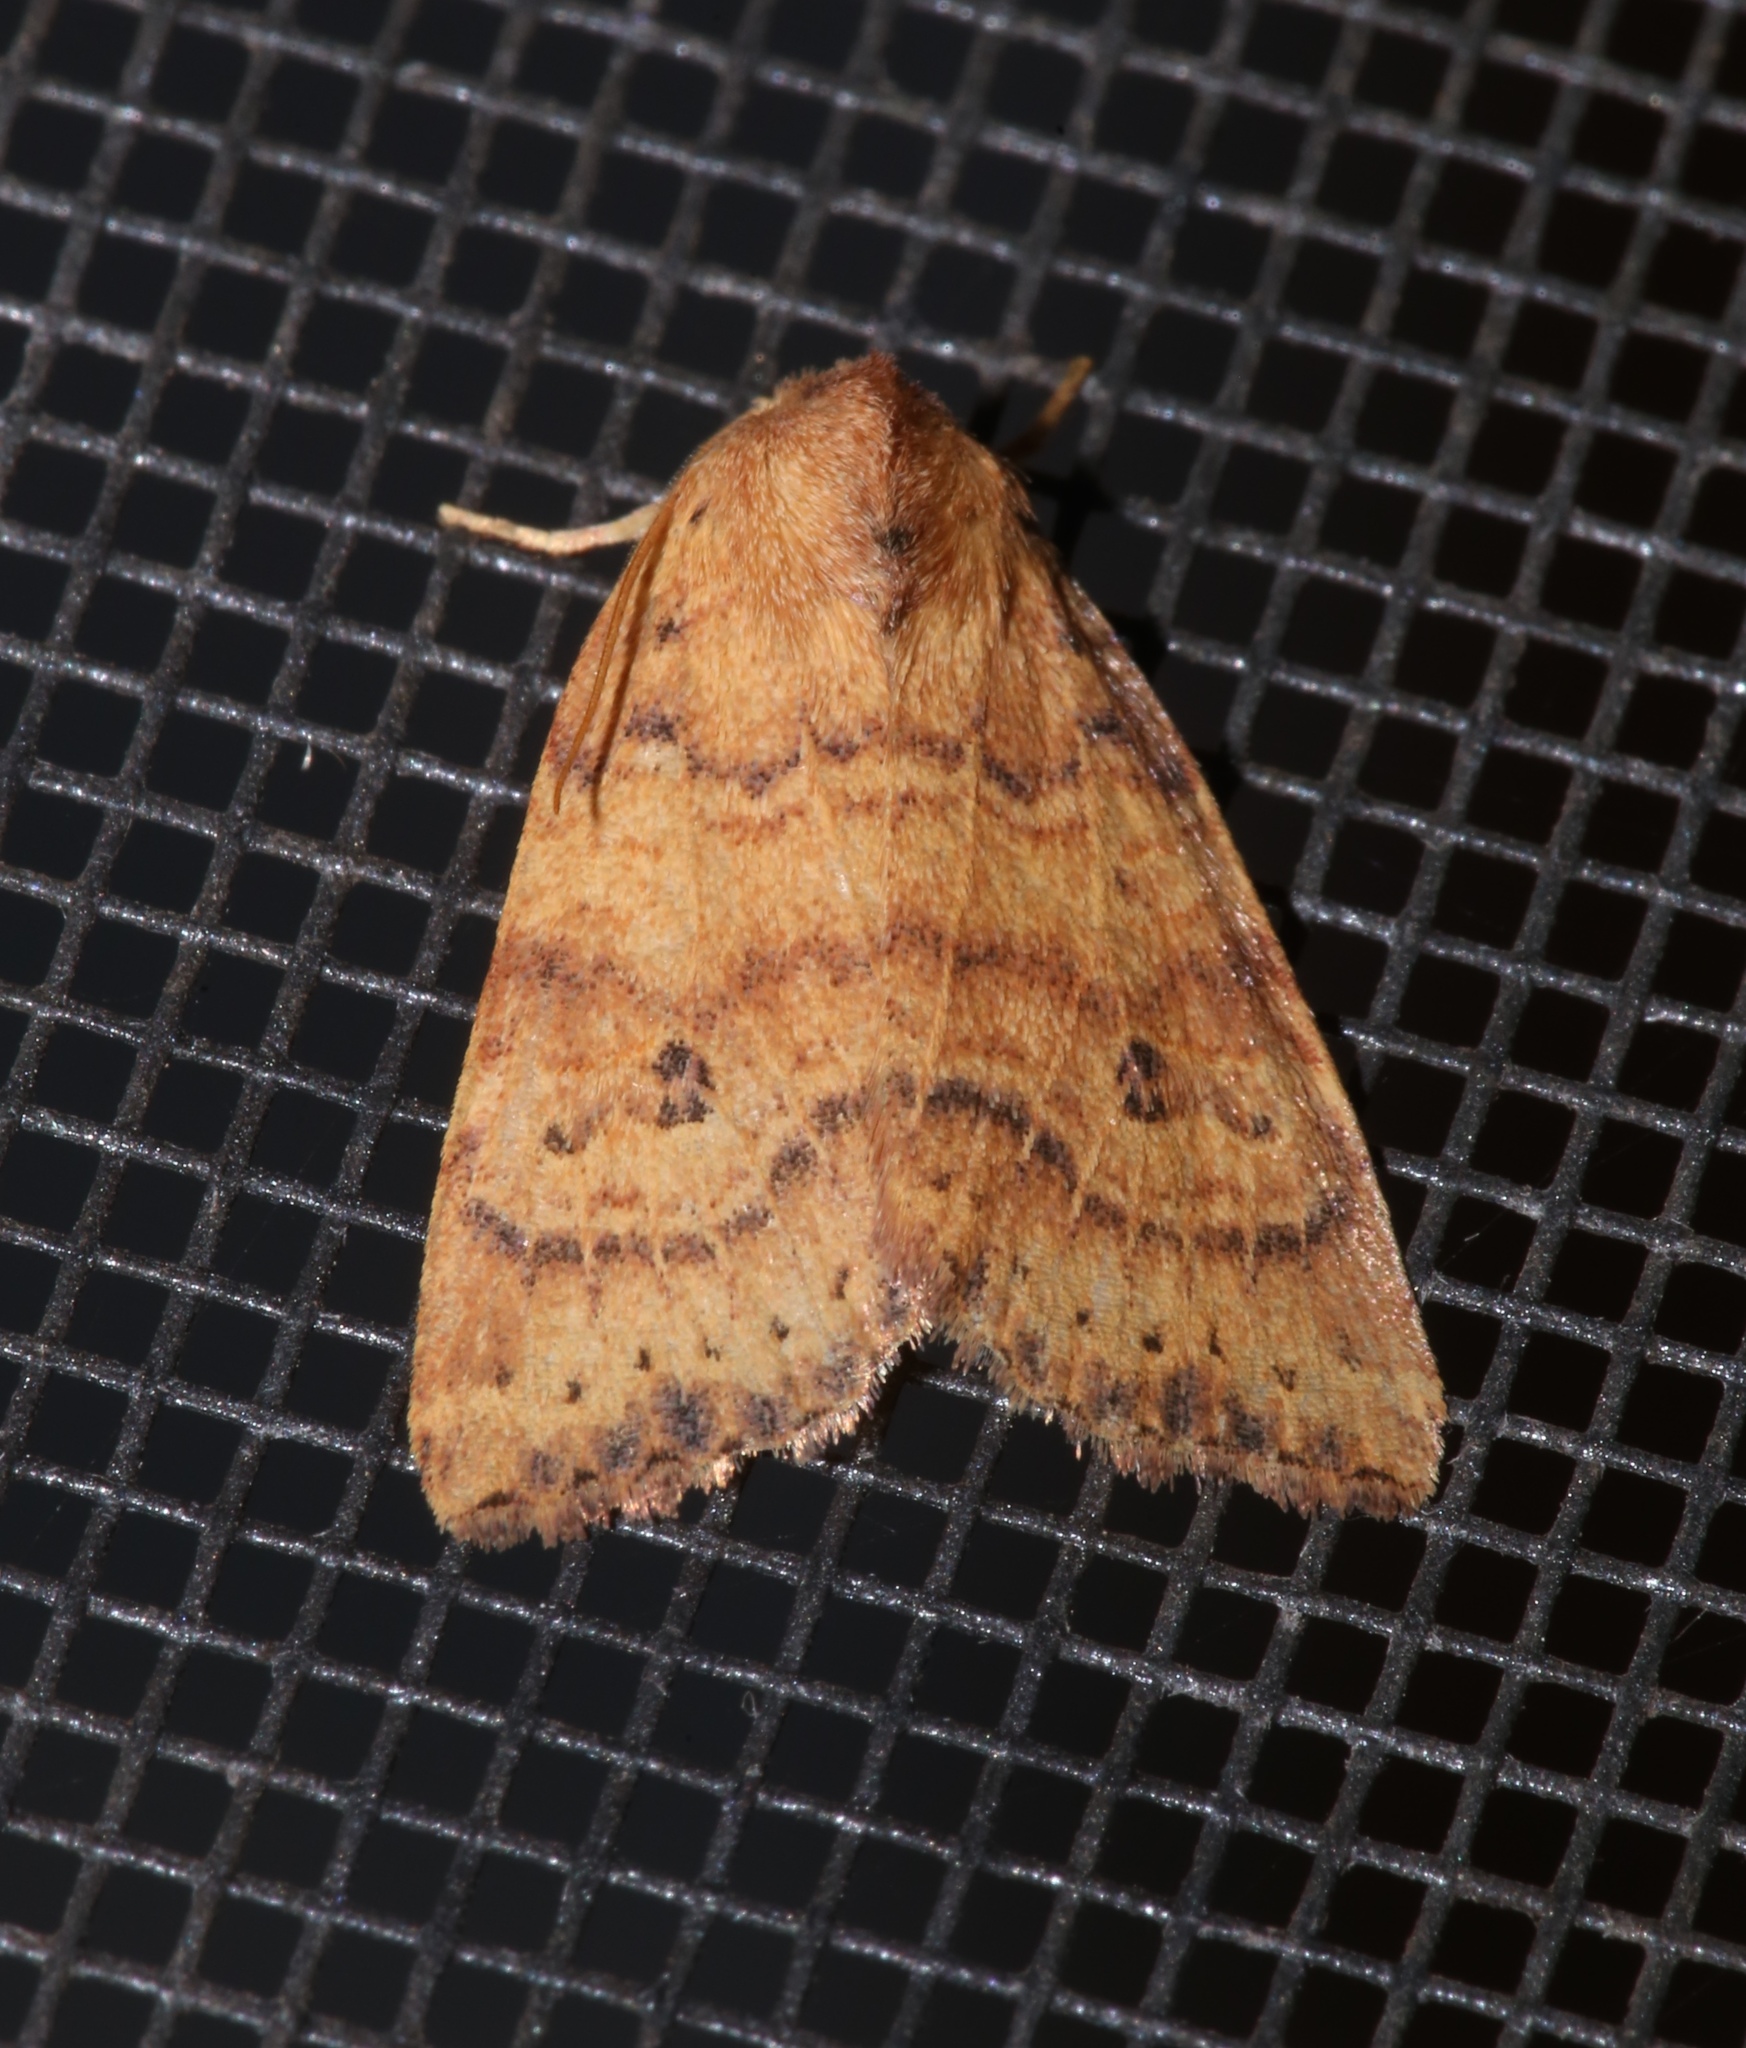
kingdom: Animalia
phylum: Arthropoda
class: Insecta
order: Lepidoptera
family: Noctuidae
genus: Anathix
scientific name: Anathix ralla
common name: Dotted sallow
